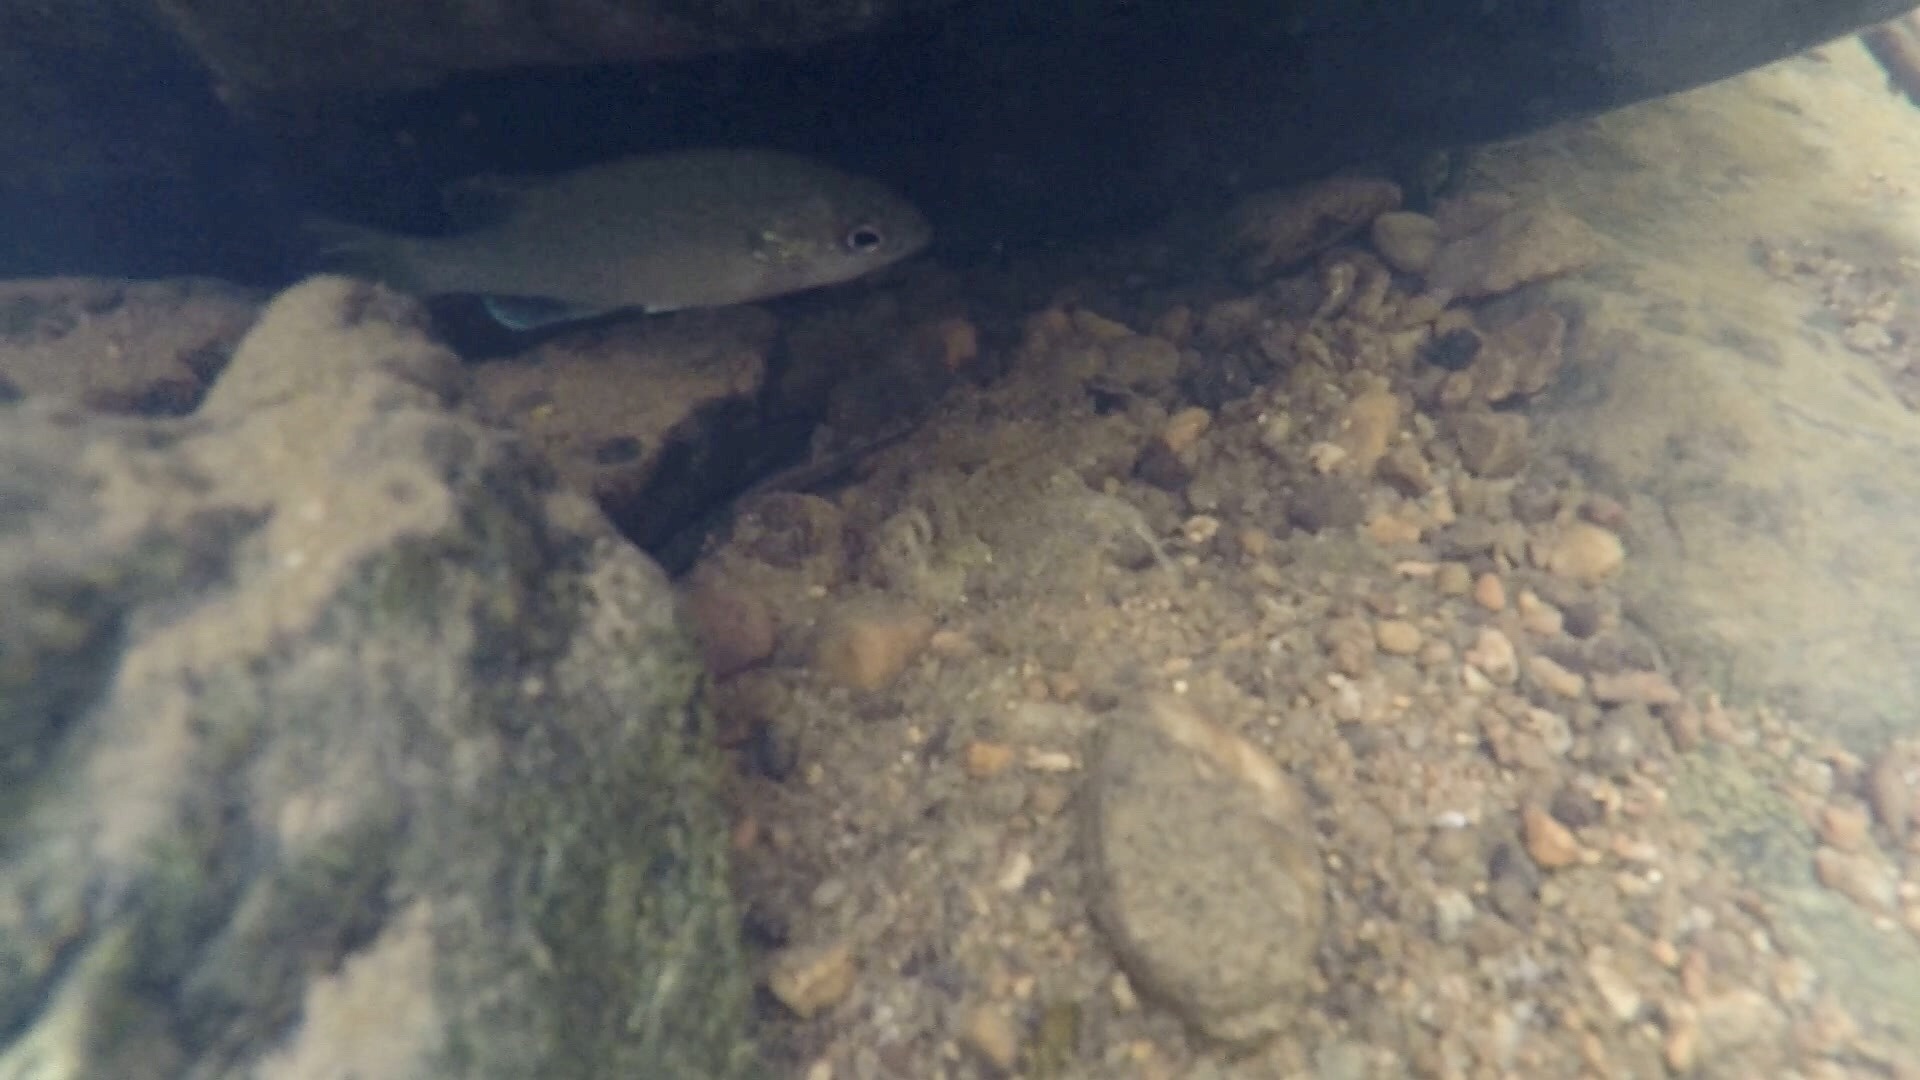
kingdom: Animalia
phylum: Chordata
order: Perciformes
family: Centrarchidae
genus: Lepomis
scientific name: Lepomis auritus
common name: Redbreast sunfish
